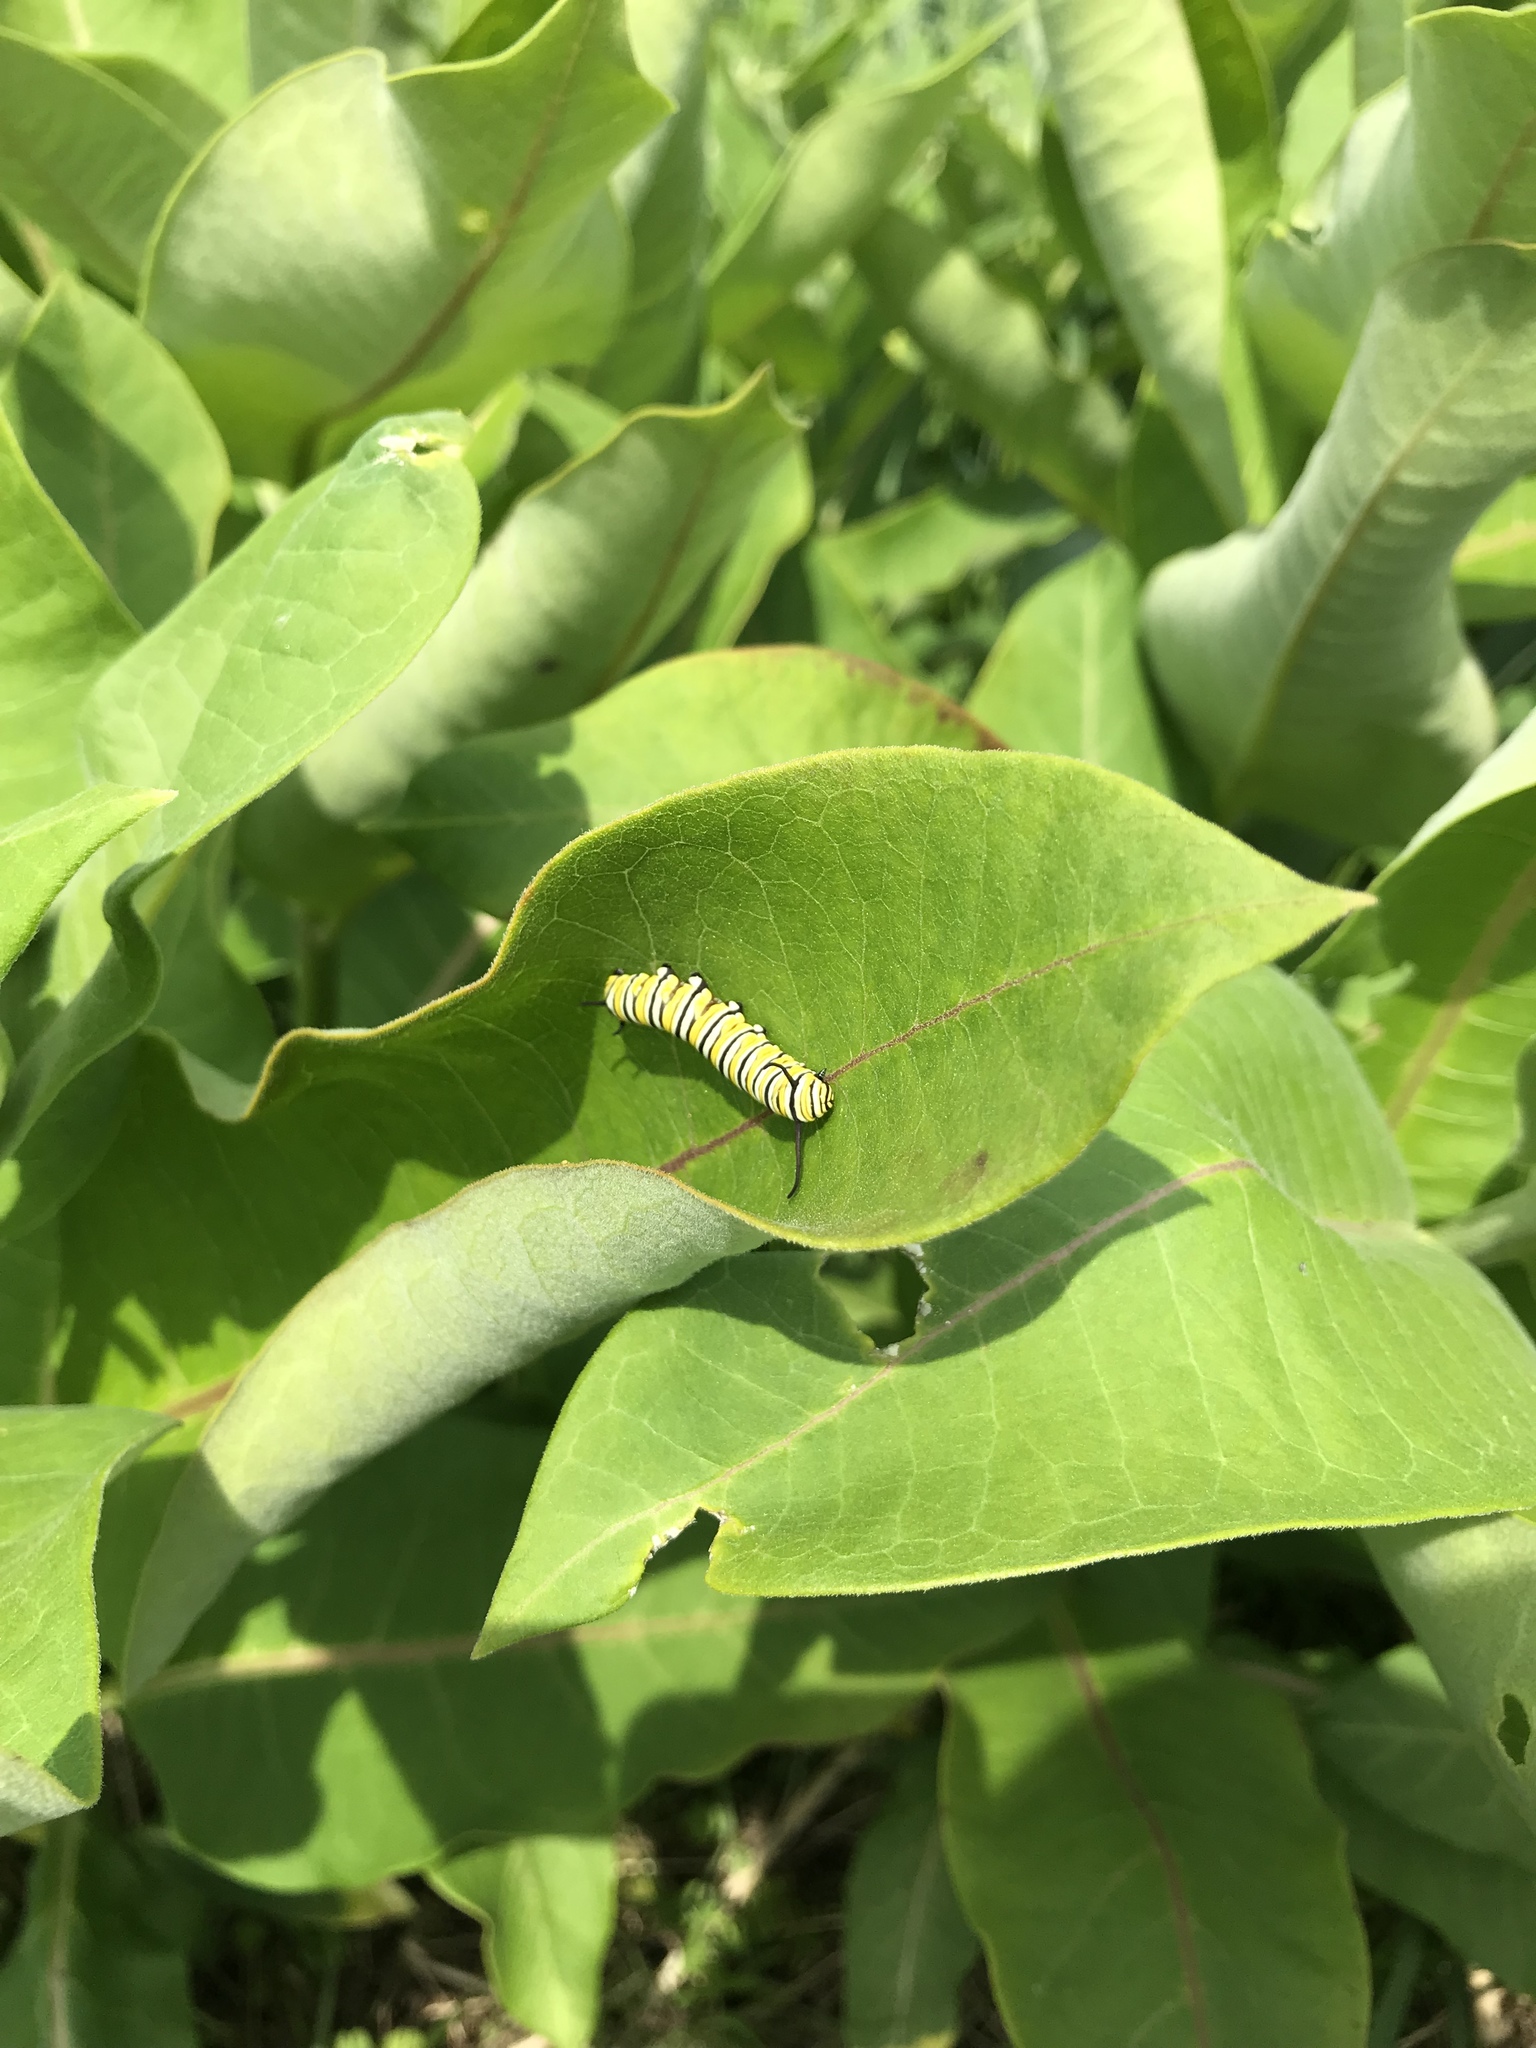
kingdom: Animalia
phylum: Arthropoda
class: Insecta
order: Lepidoptera
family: Nymphalidae
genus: Danaus
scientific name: Danaus plexippus
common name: Monarch
